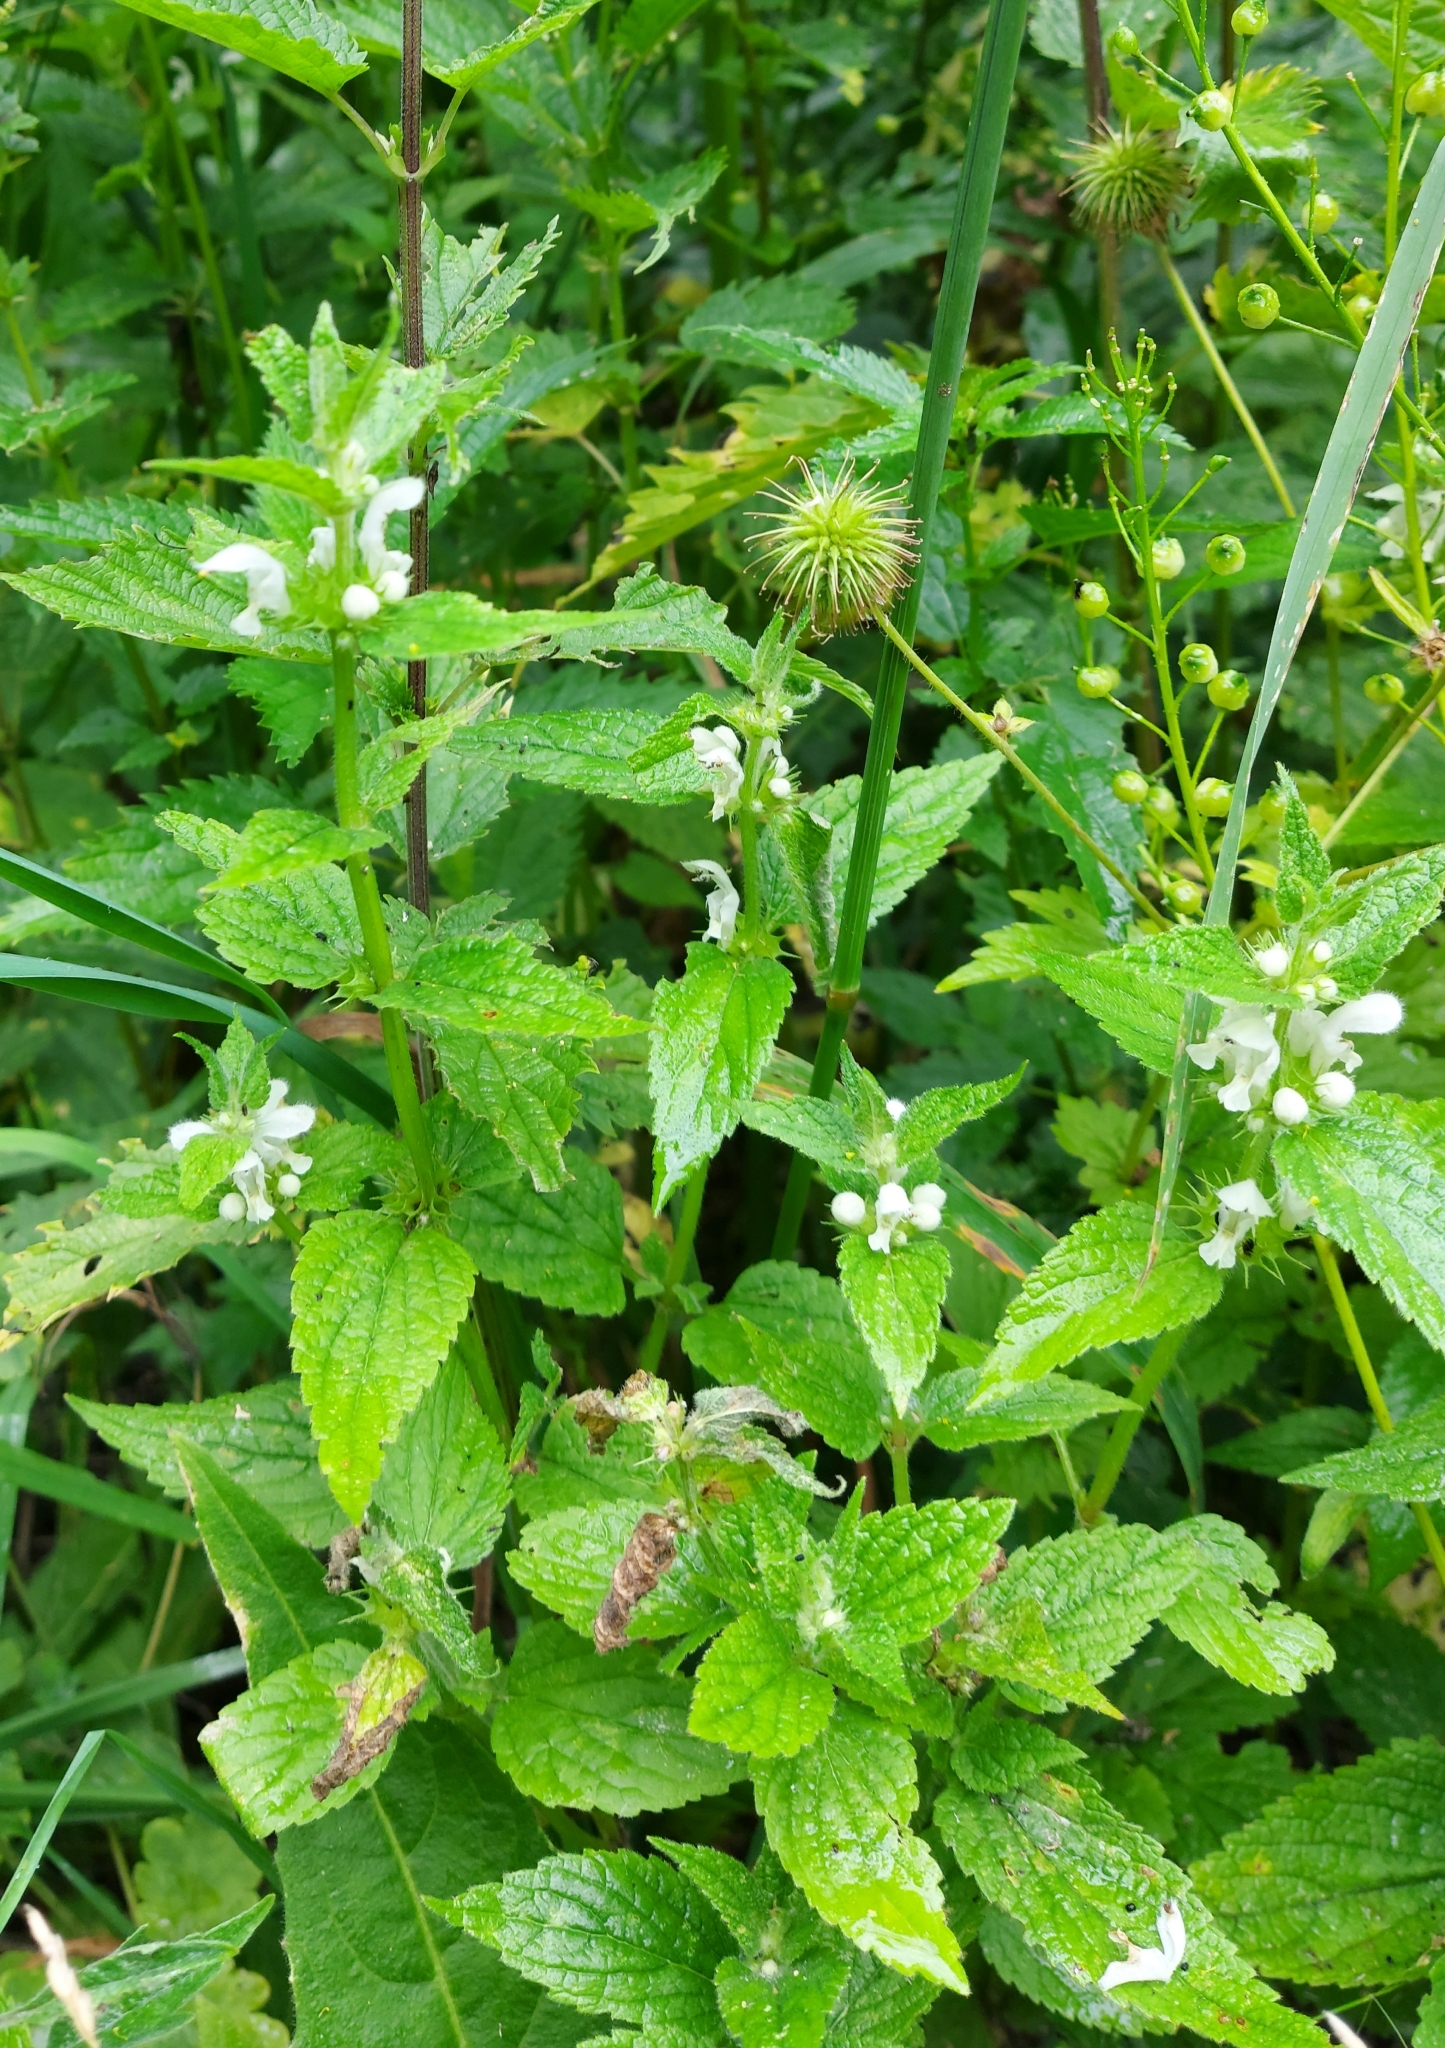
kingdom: Plantae
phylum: Tracheophyta
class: Magnoliopsida
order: Lamiales
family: Lamiaceae
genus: Lamium
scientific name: Lamium album
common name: White dead-nettle
